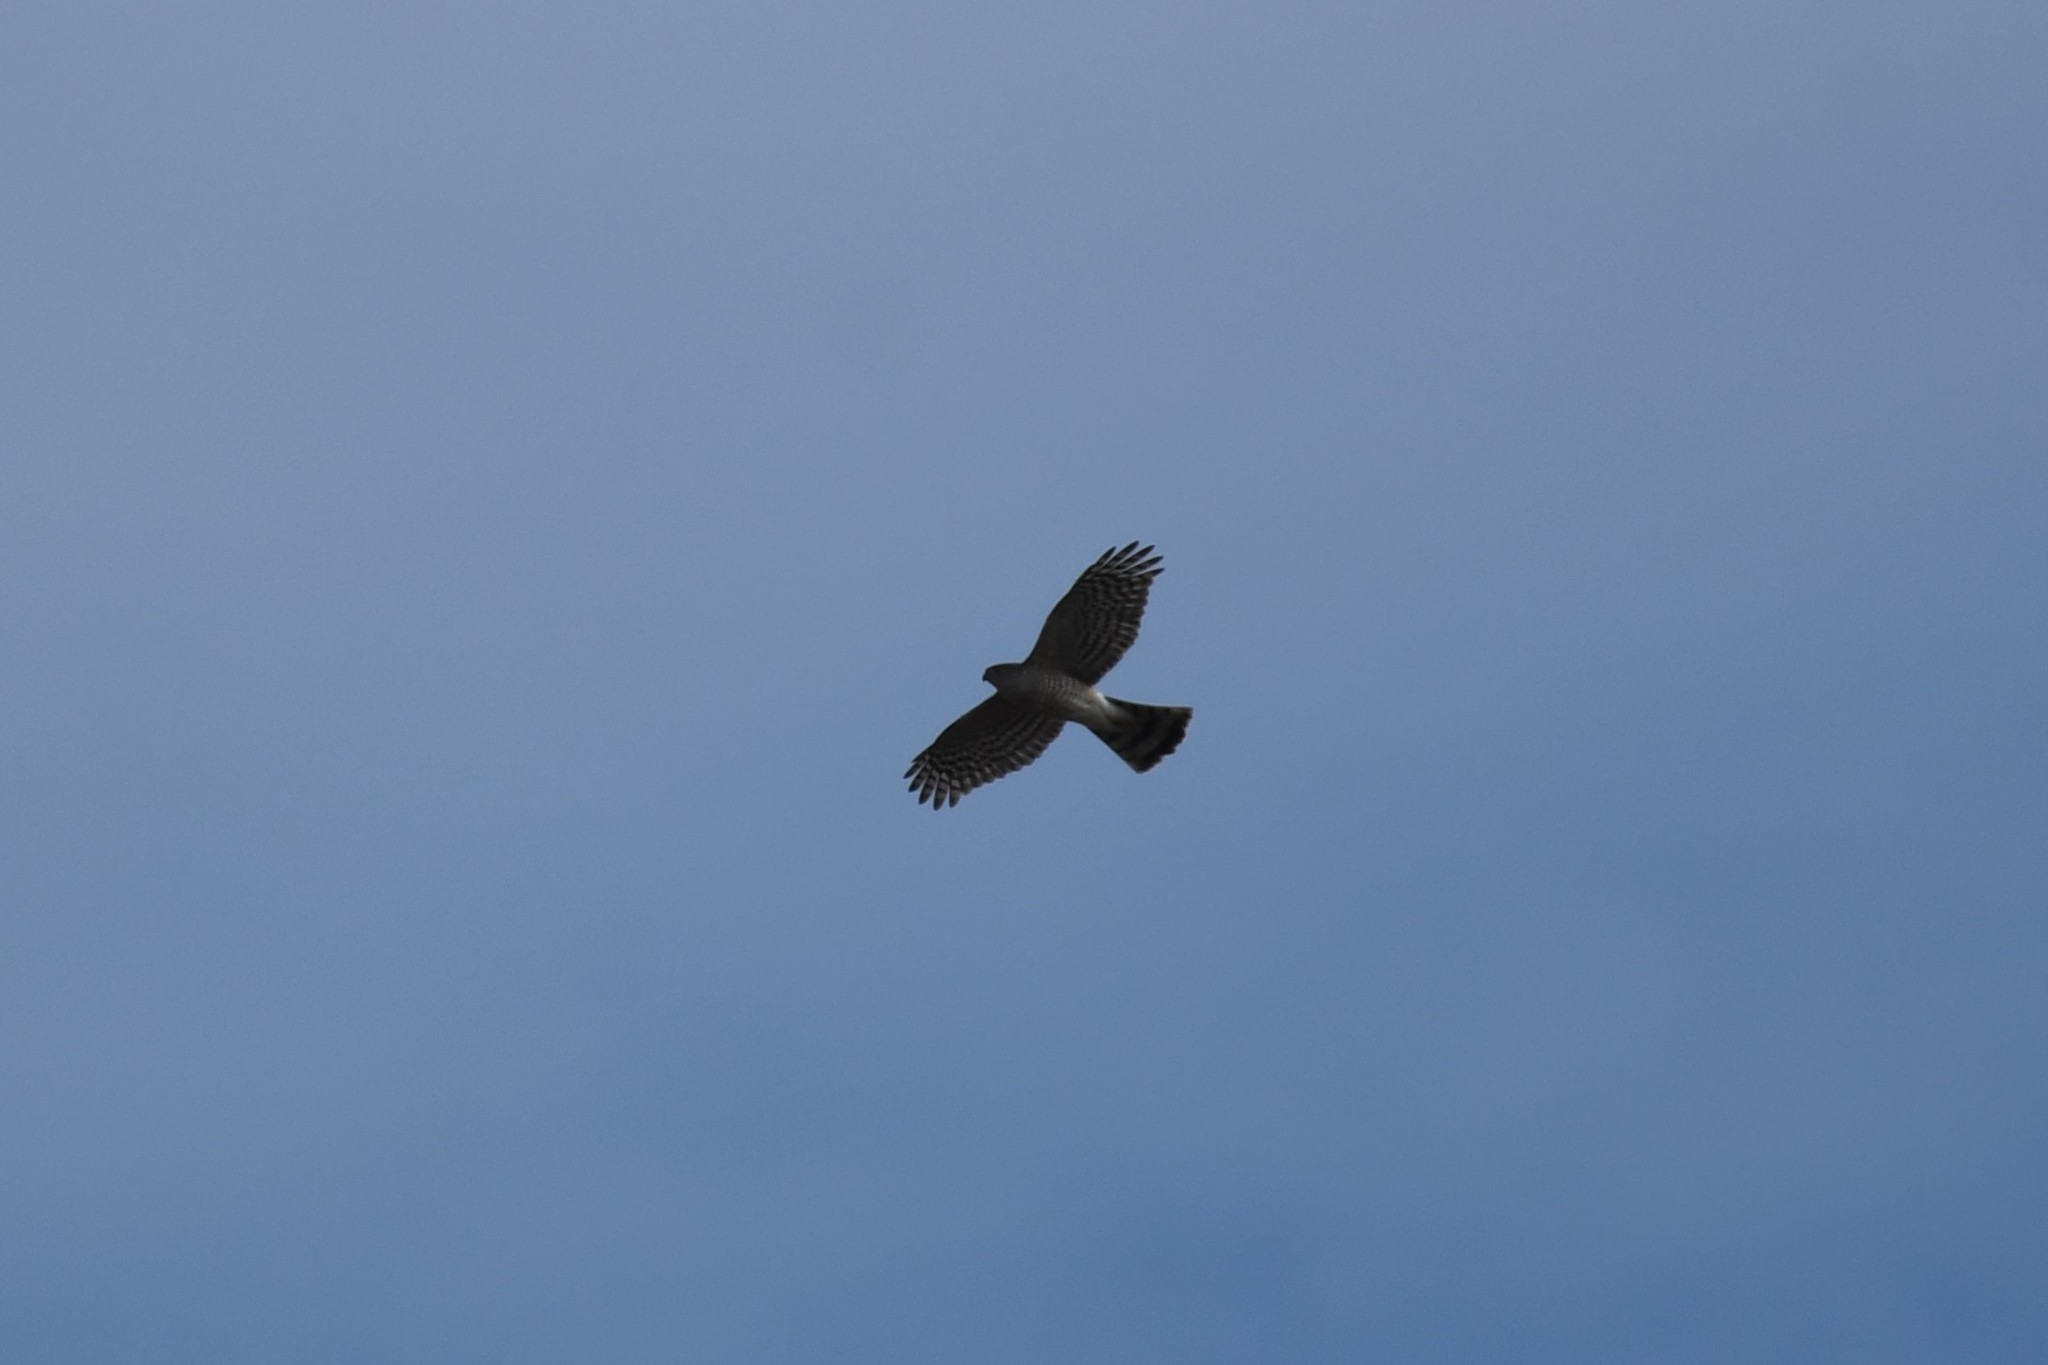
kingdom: Animalia
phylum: Chordata
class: Aves
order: Accipitriformes
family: Accipitridae
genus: Accipiter
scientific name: Accipiter striatus
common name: Sharp-shinned hawk
